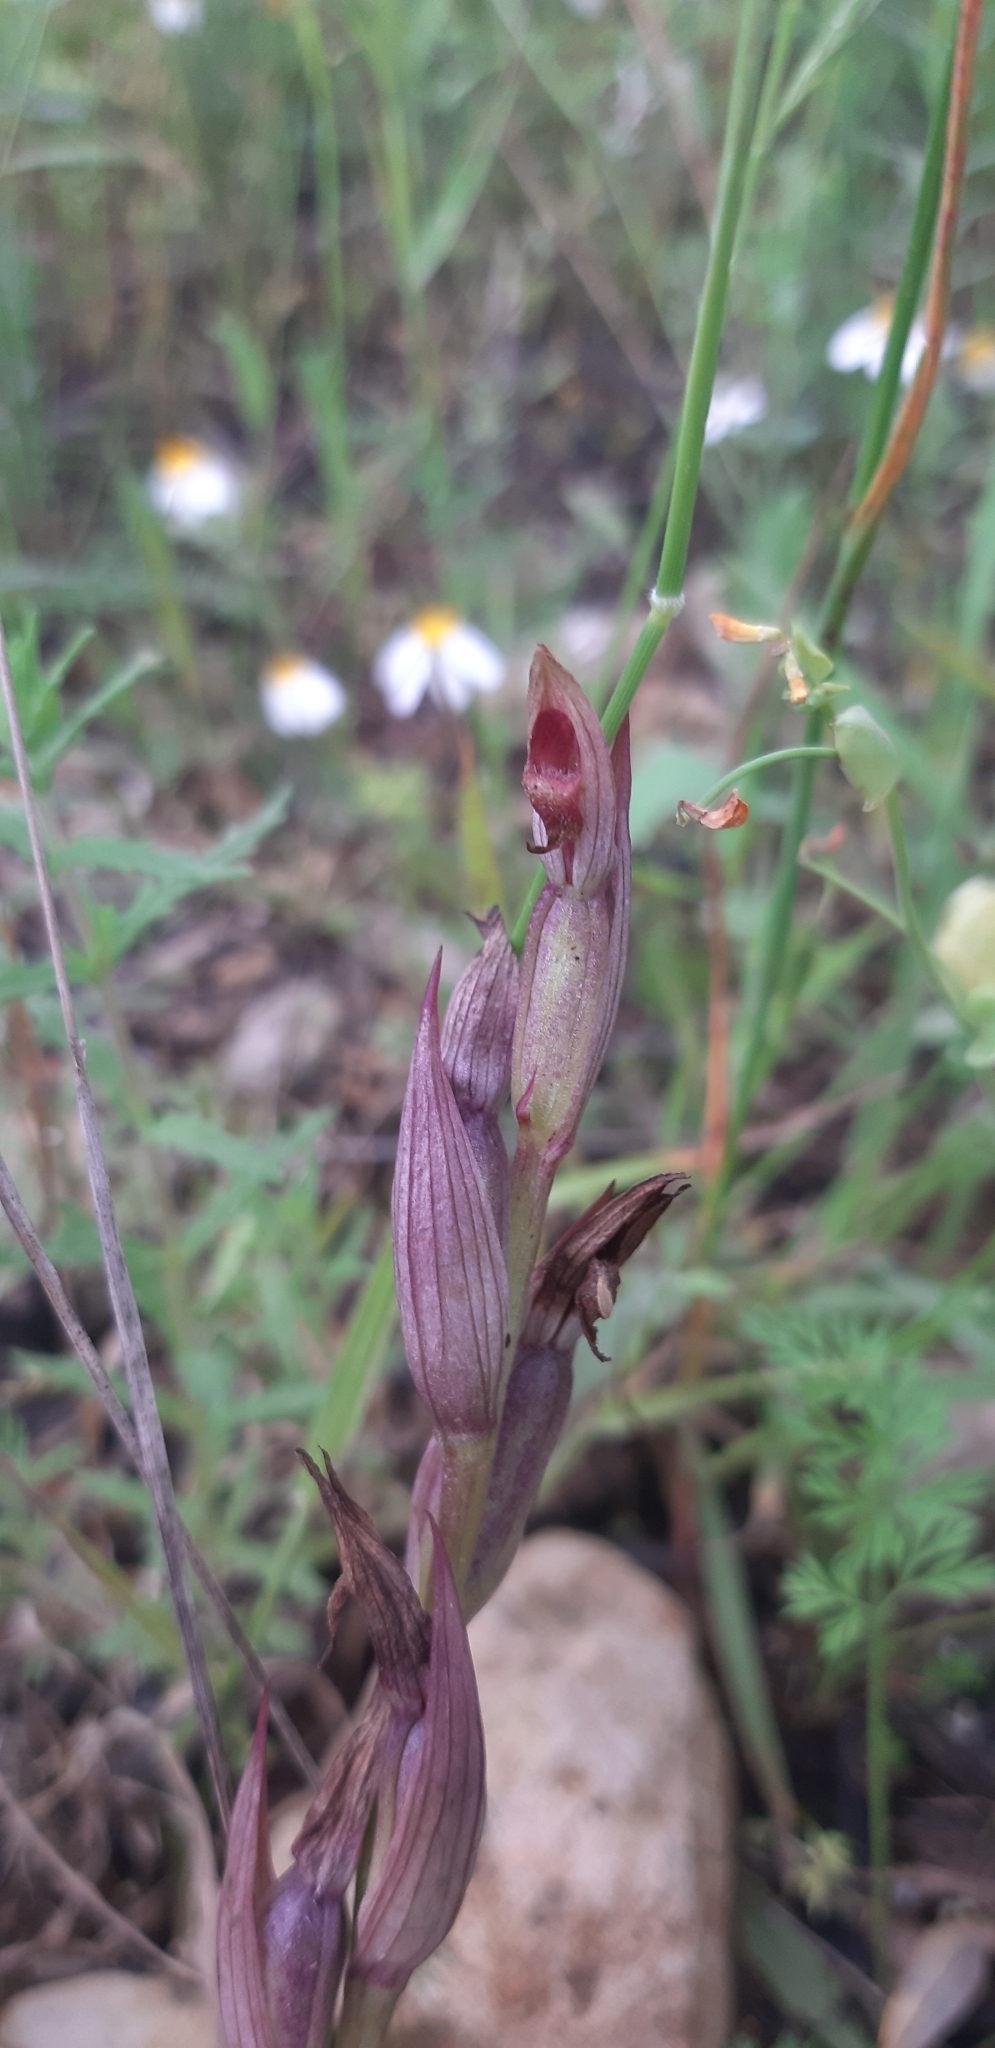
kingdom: Plantae
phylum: Tracheophyta
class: Liliopsida
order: Asparagales
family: Orchidaceae
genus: Serapias
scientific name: Serapias parviflora
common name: Small-flowered tongue-orchid
